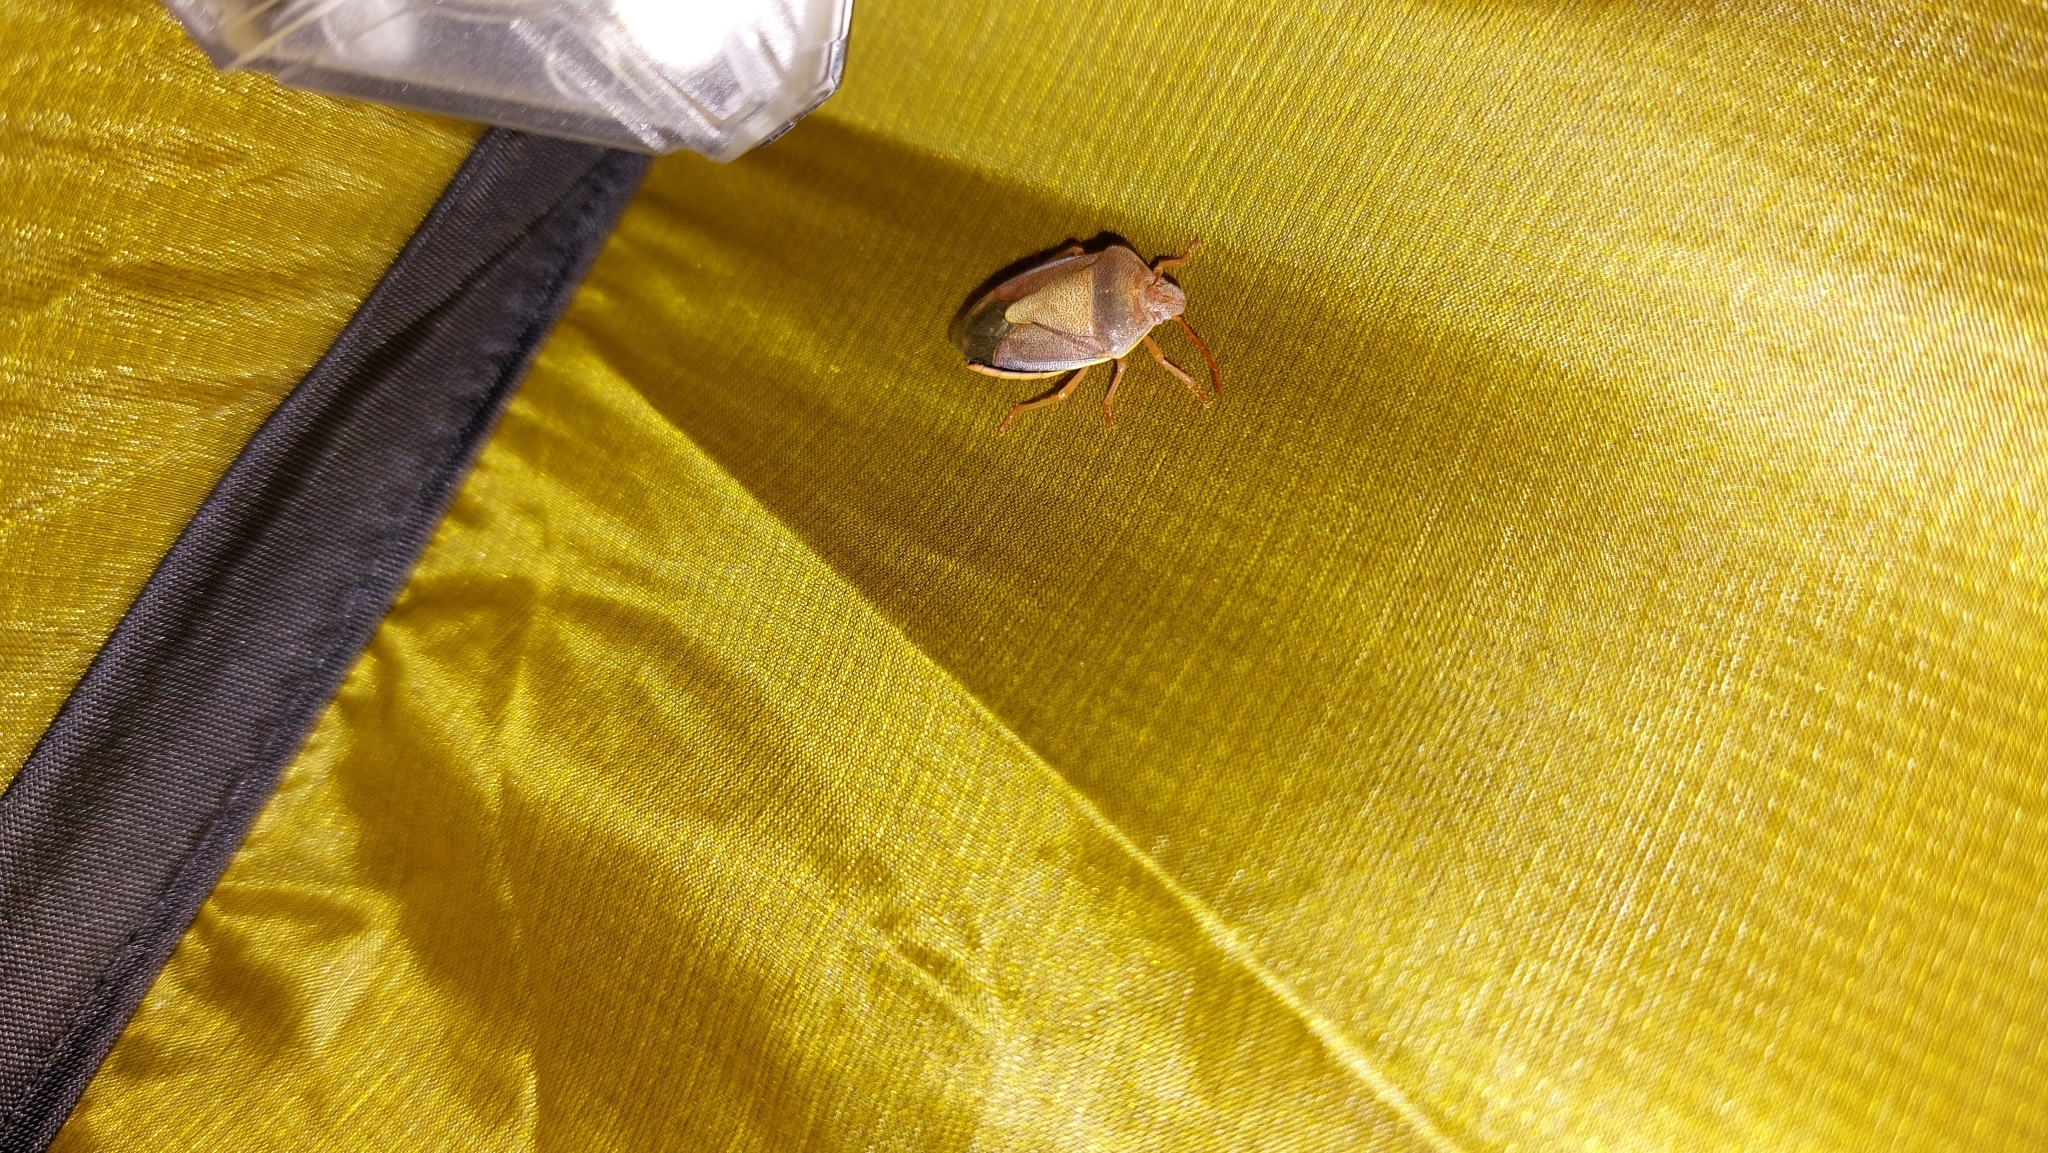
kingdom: Animalia
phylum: Arthropoda
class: Insecta
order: Hemiptera
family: Pentatomidae
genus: Piezodorus
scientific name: Piezodorus lituratus
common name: Stink bug
